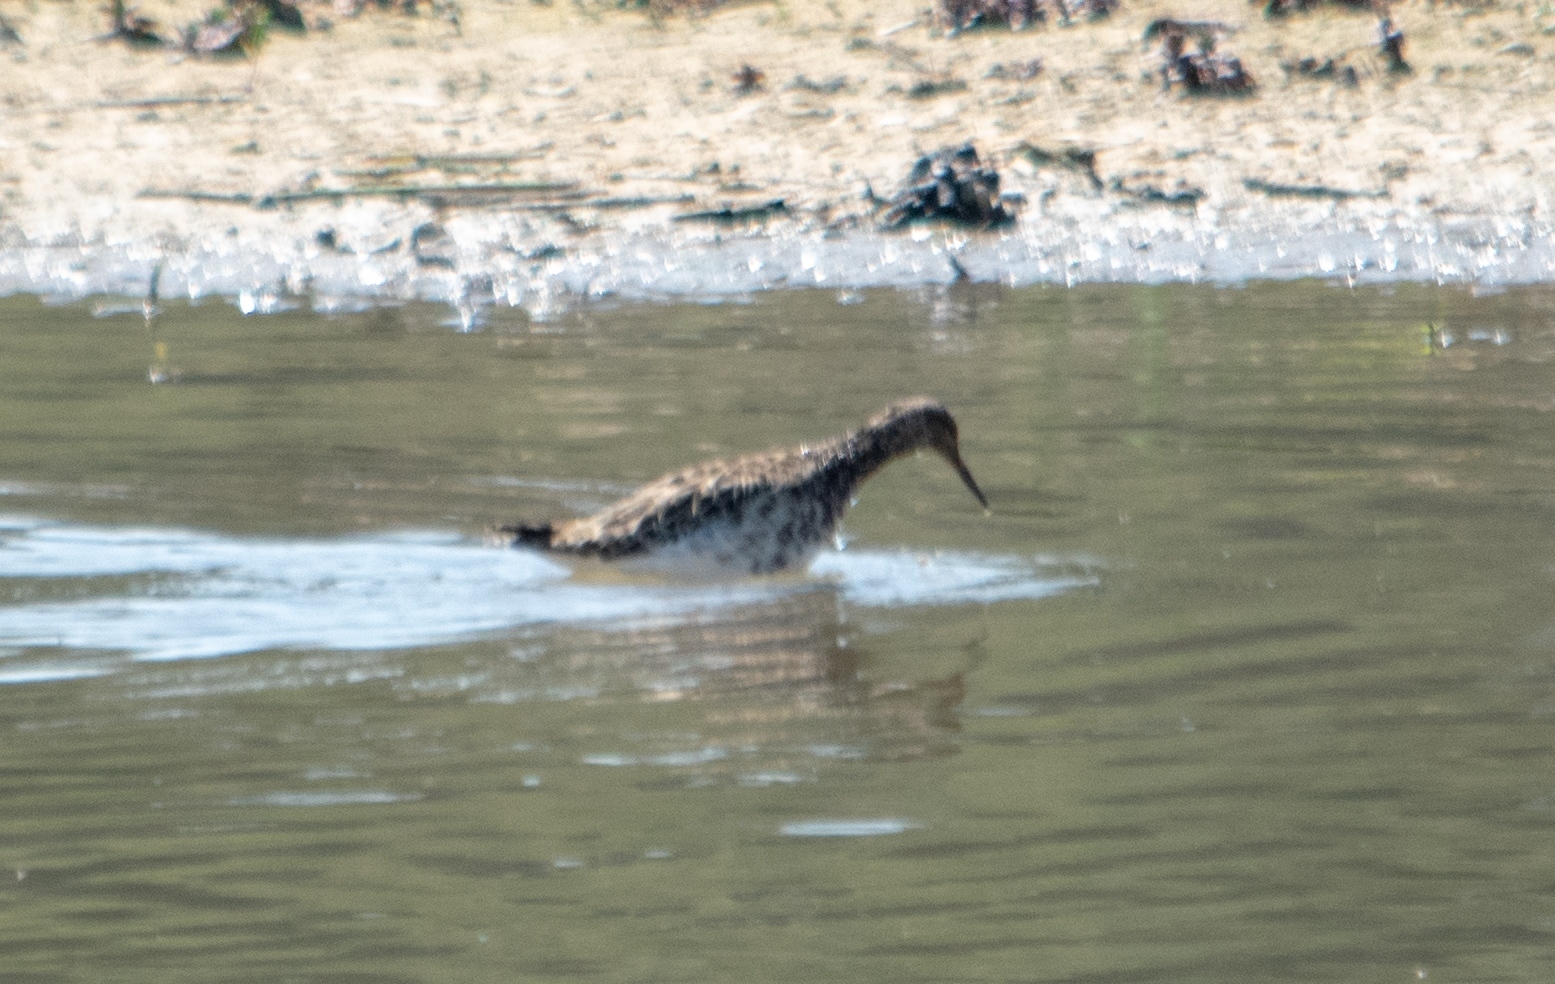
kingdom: Animalia
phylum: Chordata
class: Aves
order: Charadriiformes
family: Scolopacidae
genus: Calidris
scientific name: Calidris pugnax
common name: Ruff
